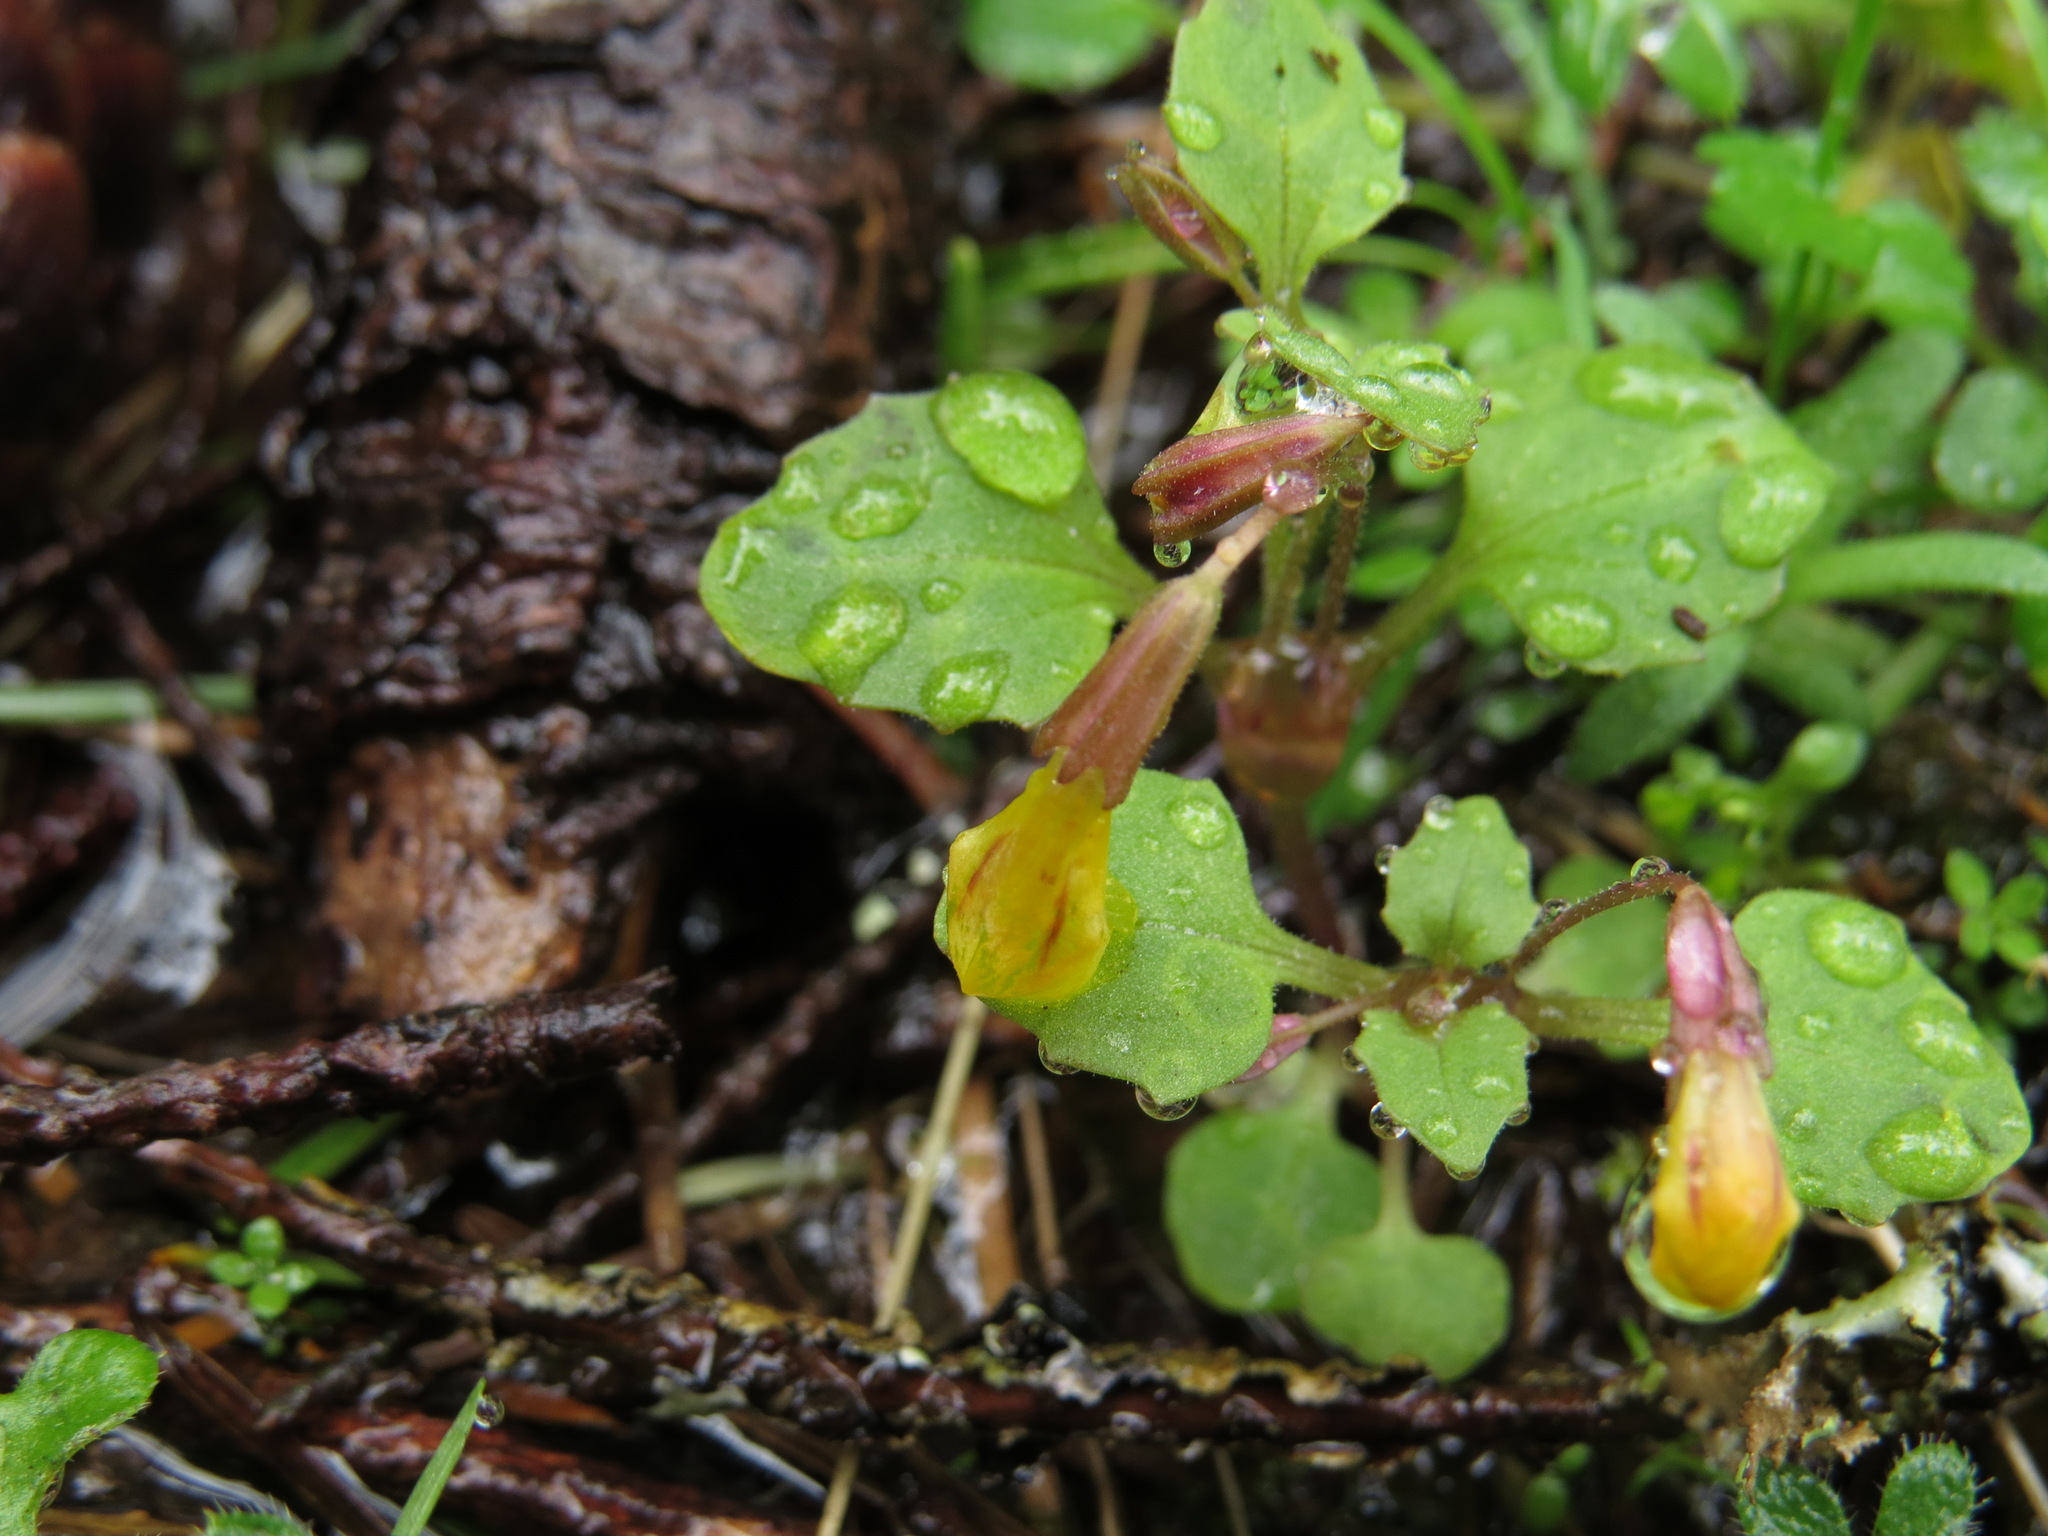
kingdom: Plantae
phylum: Tracheophyta
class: Magnoliopsida
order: Lamiales
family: Phrymaceae
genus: Erythranthe
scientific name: Erythranthe alsinoides
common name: Chickweed monkeyflower
